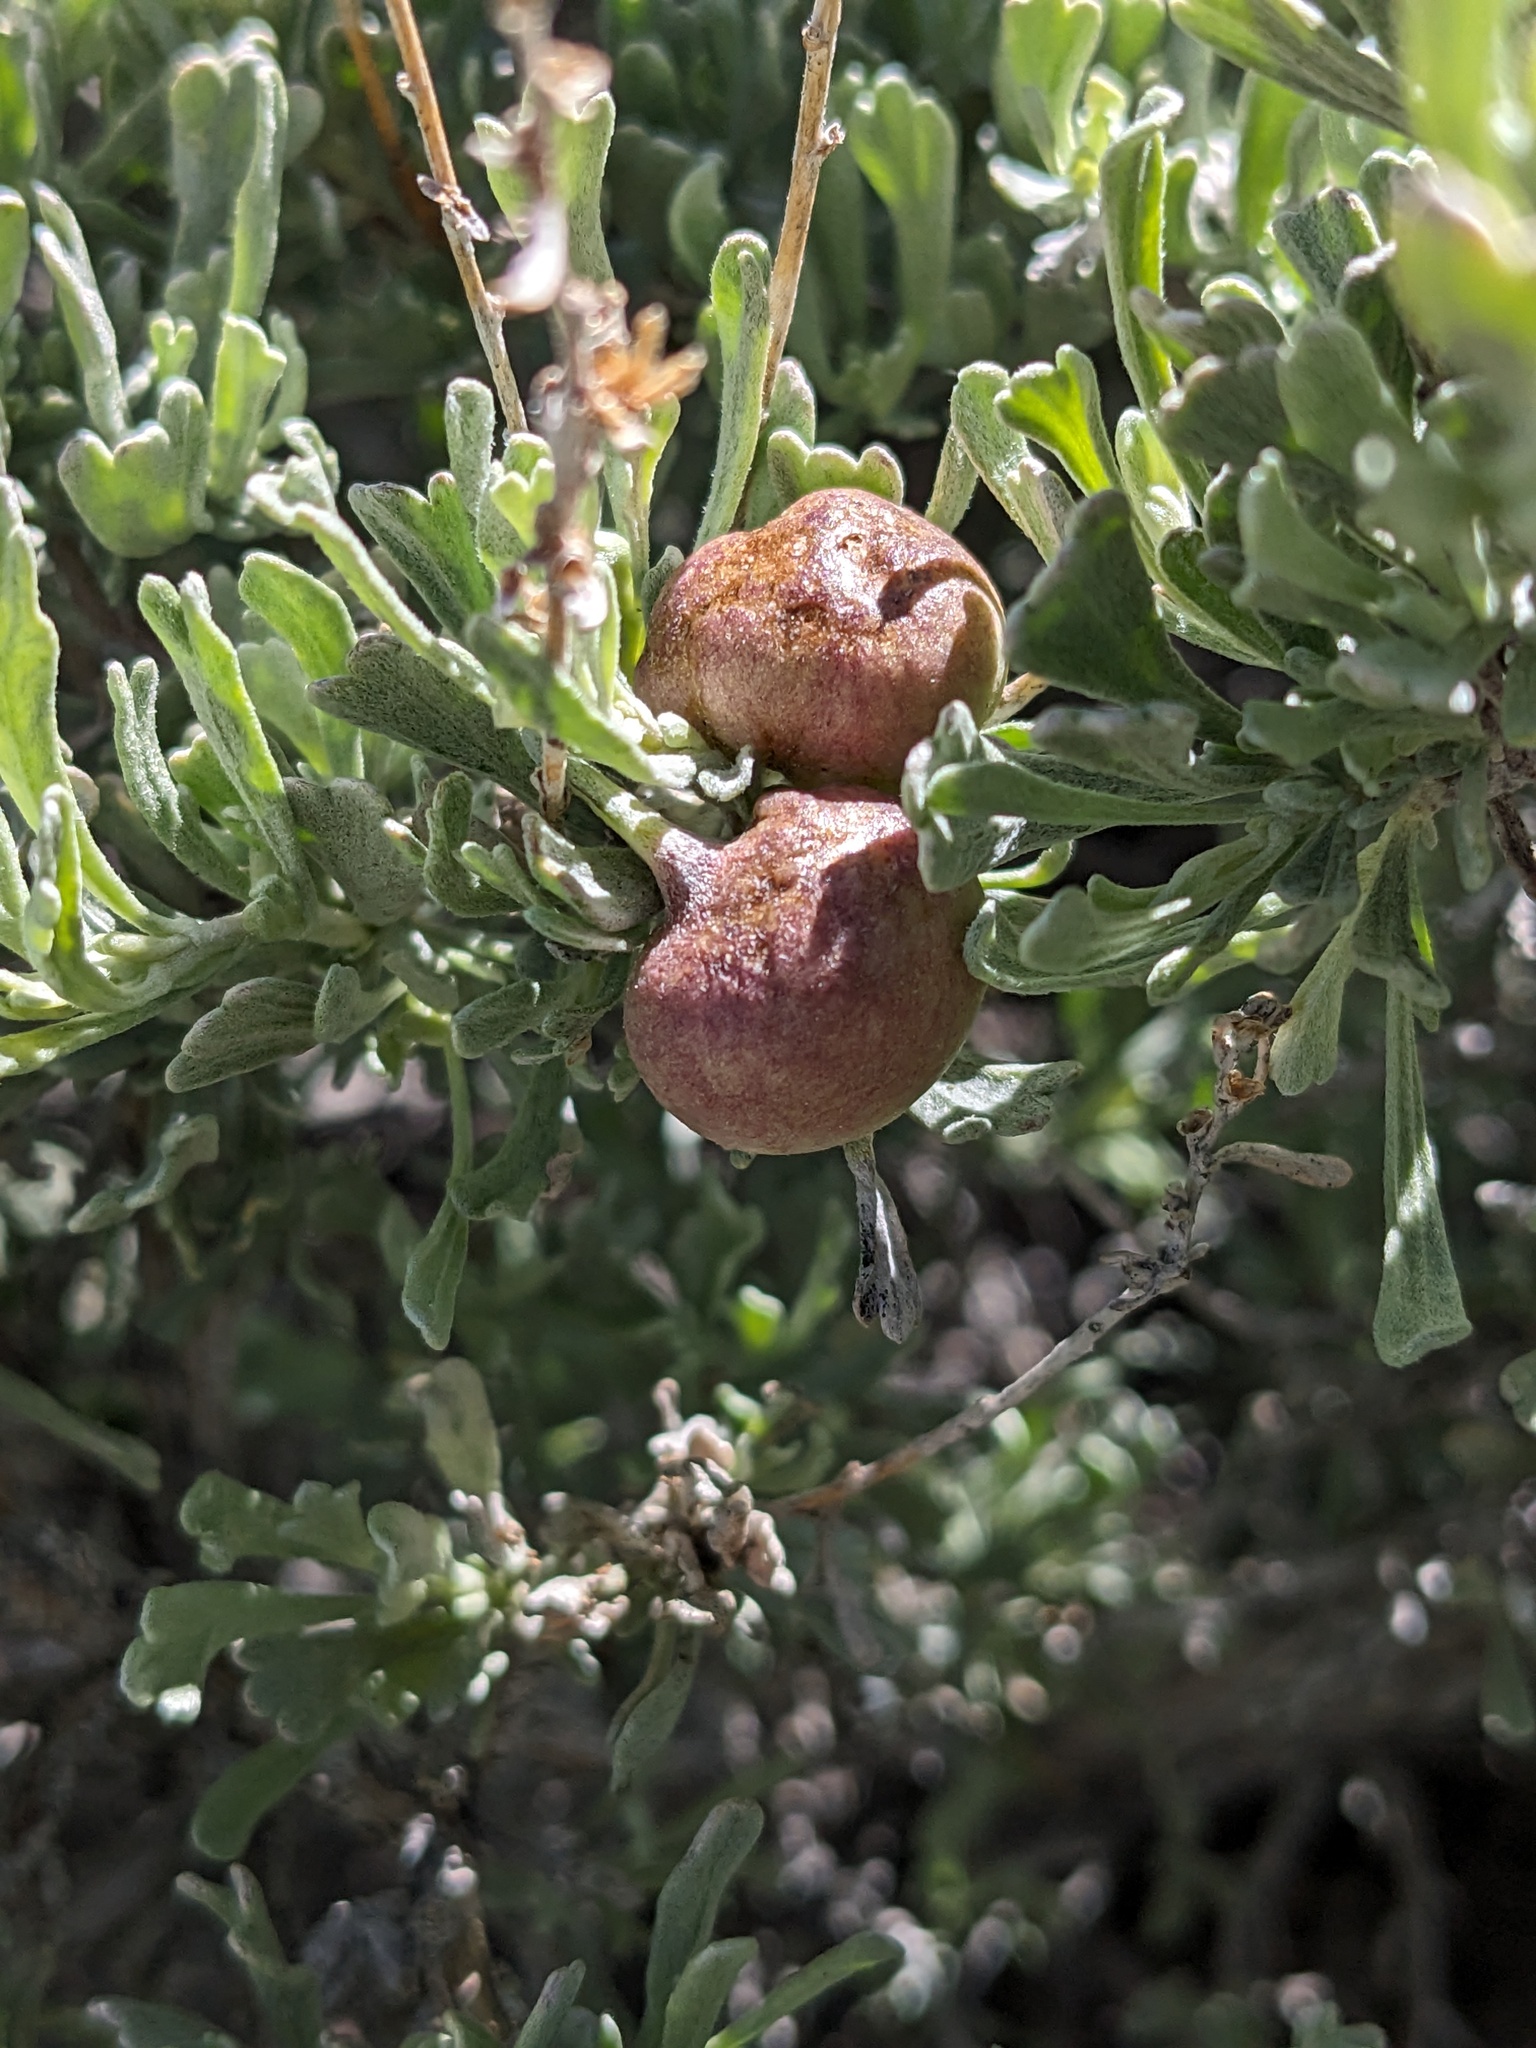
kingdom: Animalia
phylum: Arthropoda
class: Insecta
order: Diptera
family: Cecidomyiidae
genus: Rhopalomyia
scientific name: Rhopalomyia pomum
